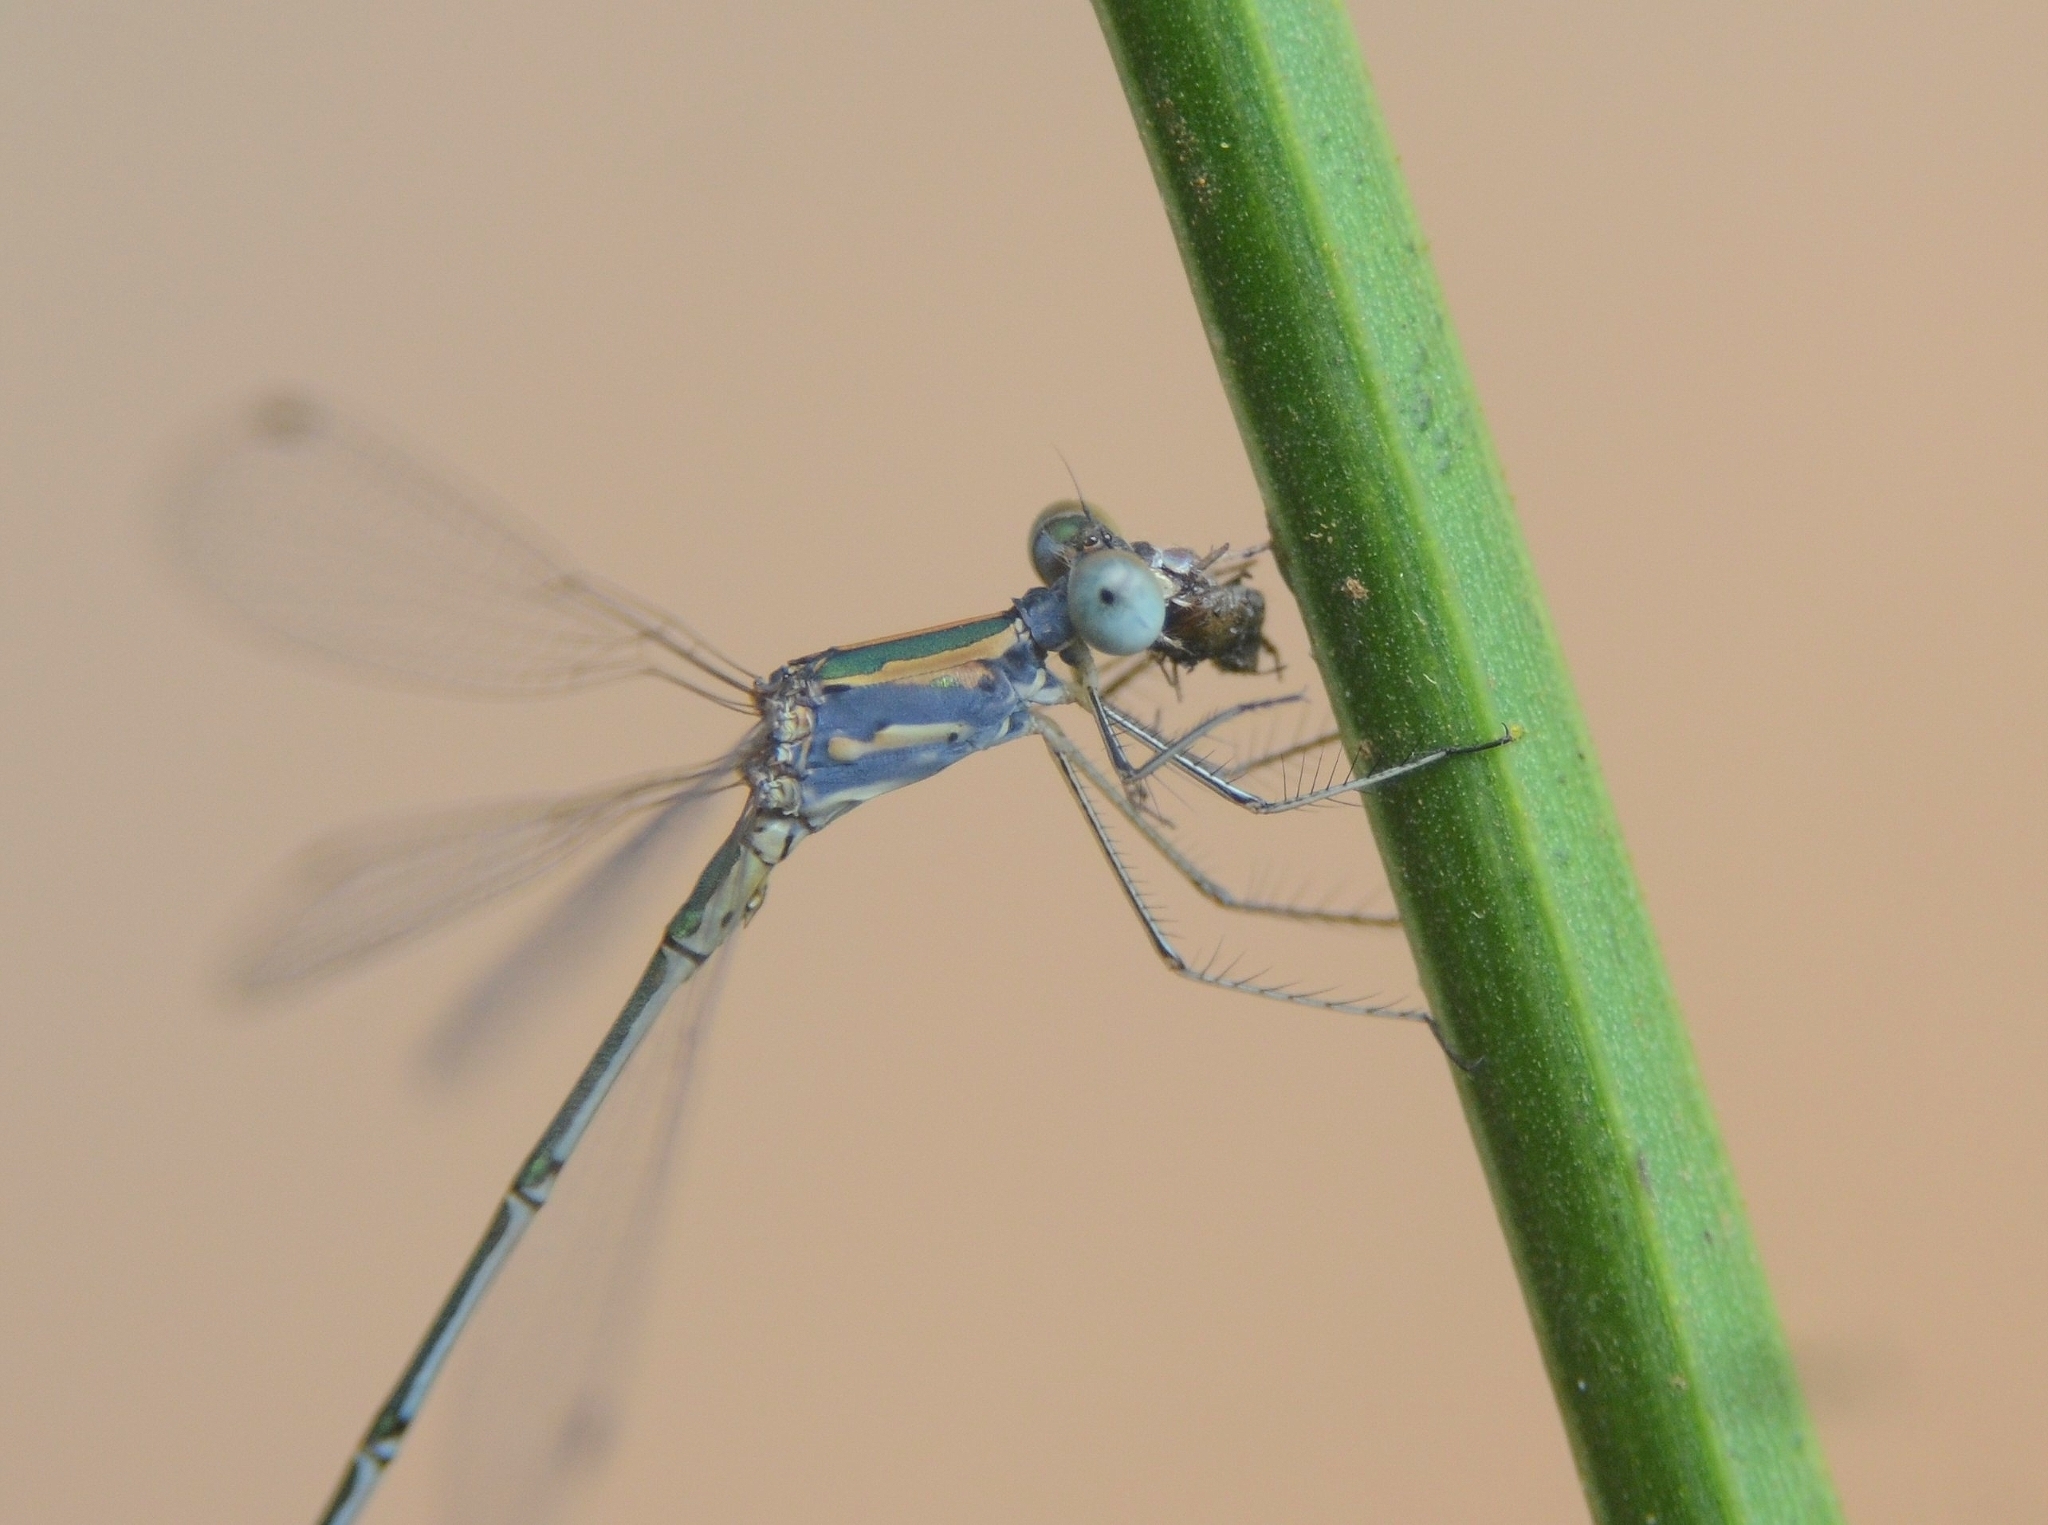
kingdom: Animalia
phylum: Arthropoda
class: Insecta
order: Odonata
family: Lestidae
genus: Lestes
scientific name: Lestes elatus
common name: Emerald spreadwing
